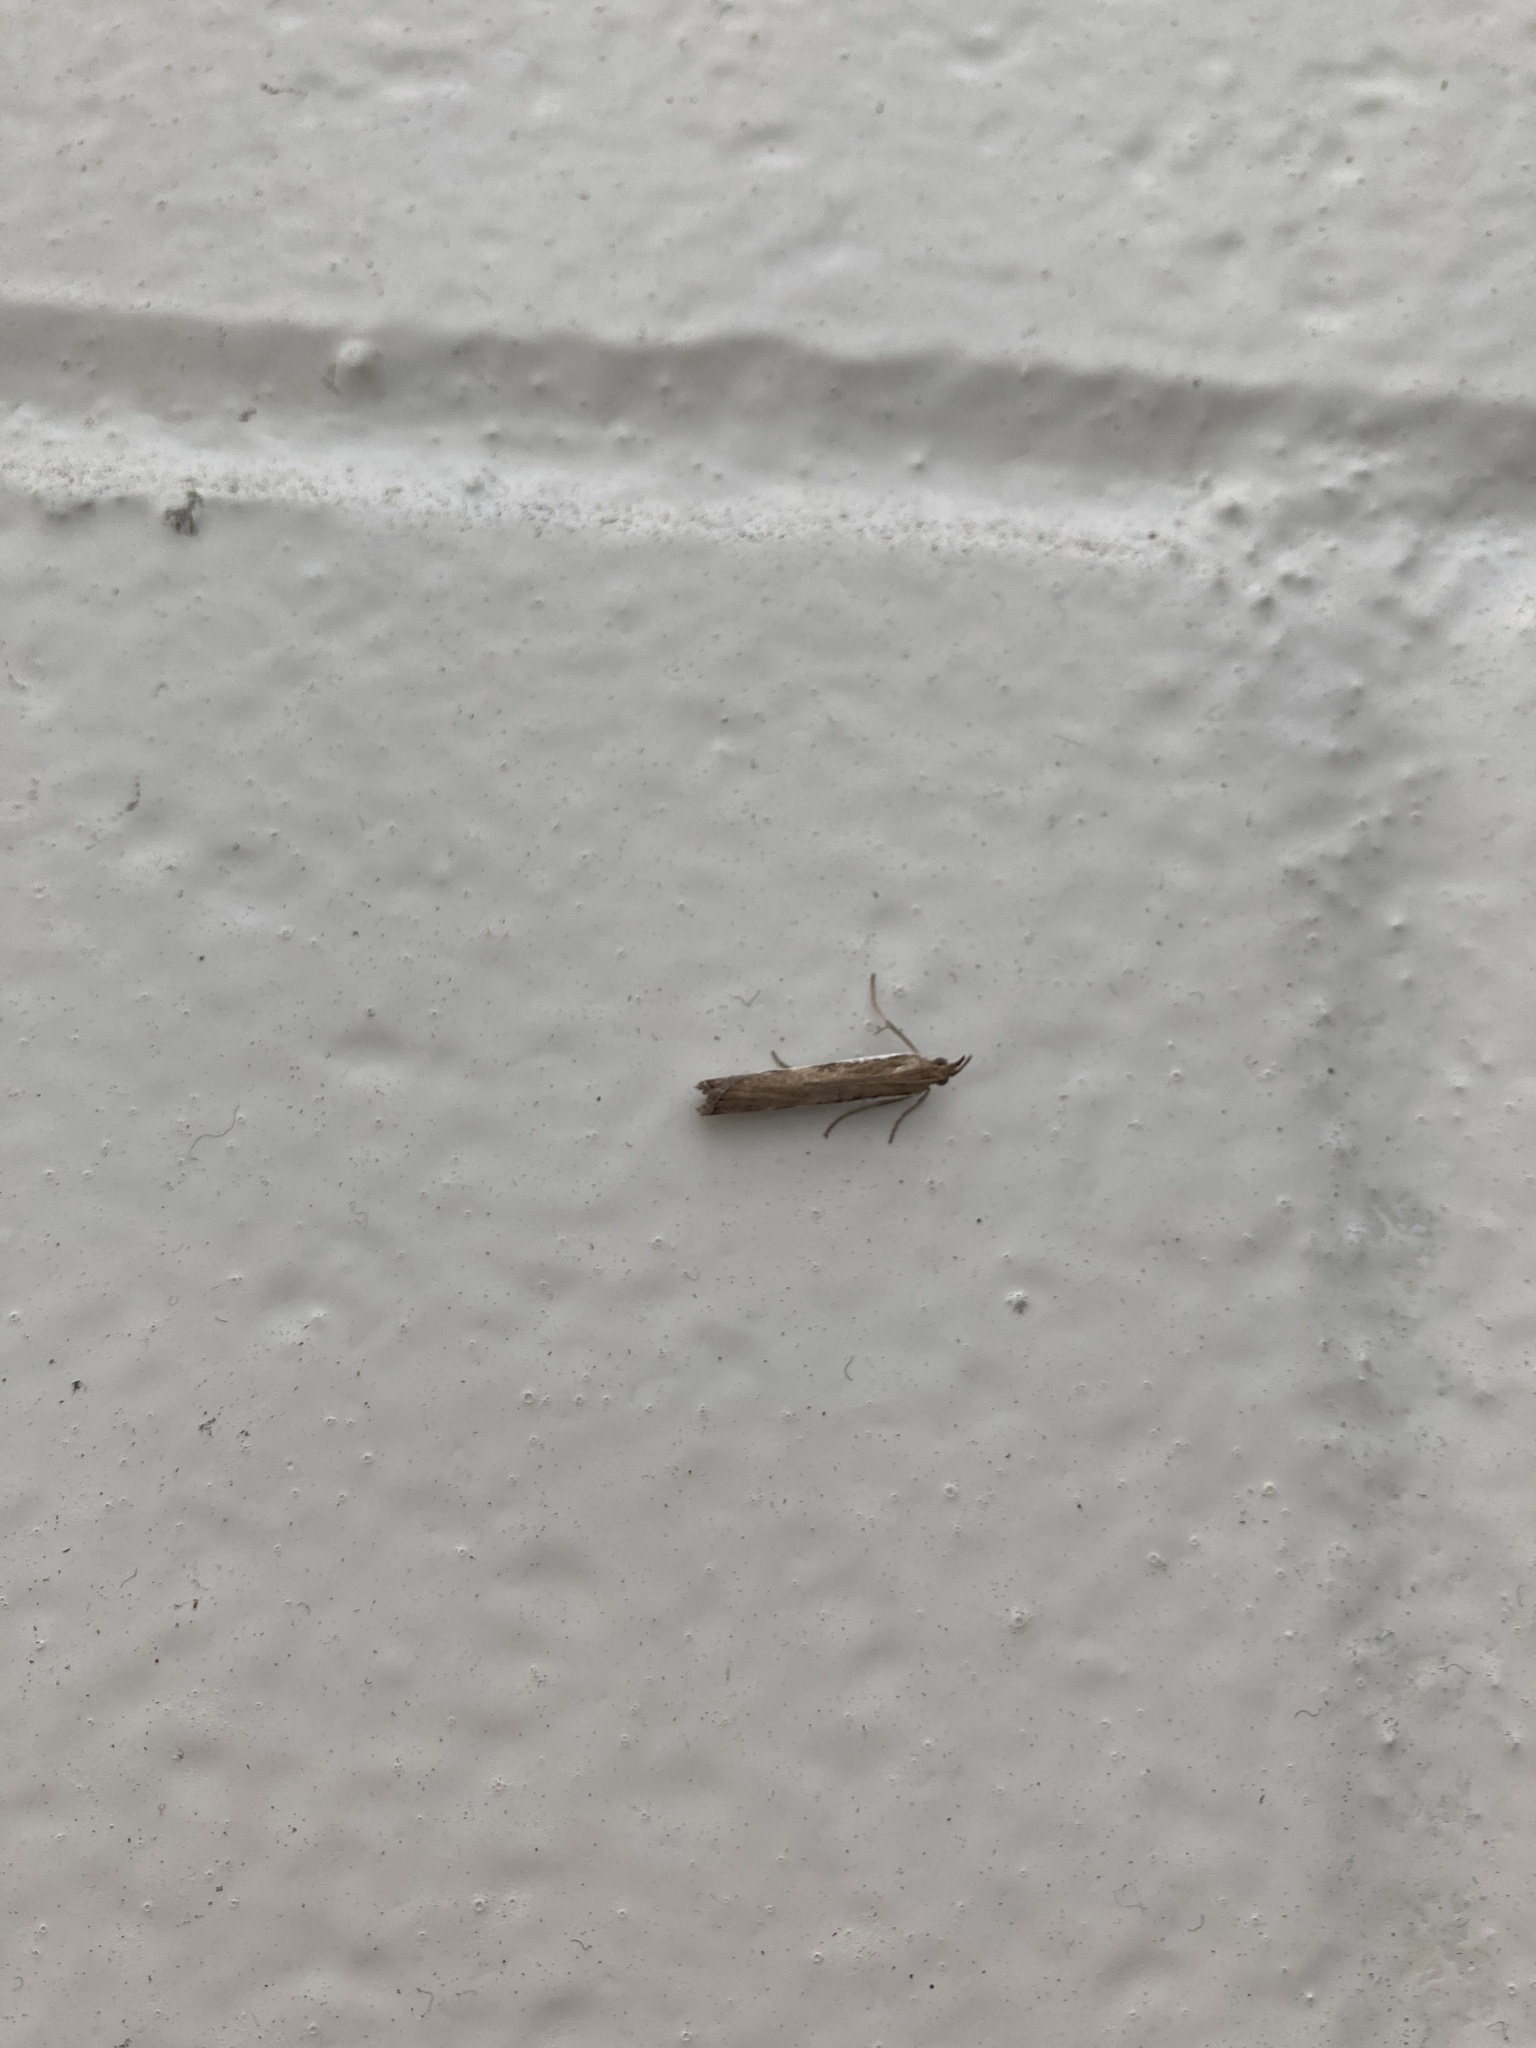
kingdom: Animalia
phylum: Arthropoda
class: Insecta
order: Lepidoptera
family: Crambidae
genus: Orocrambus
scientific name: Orocrambus flexuosellus
